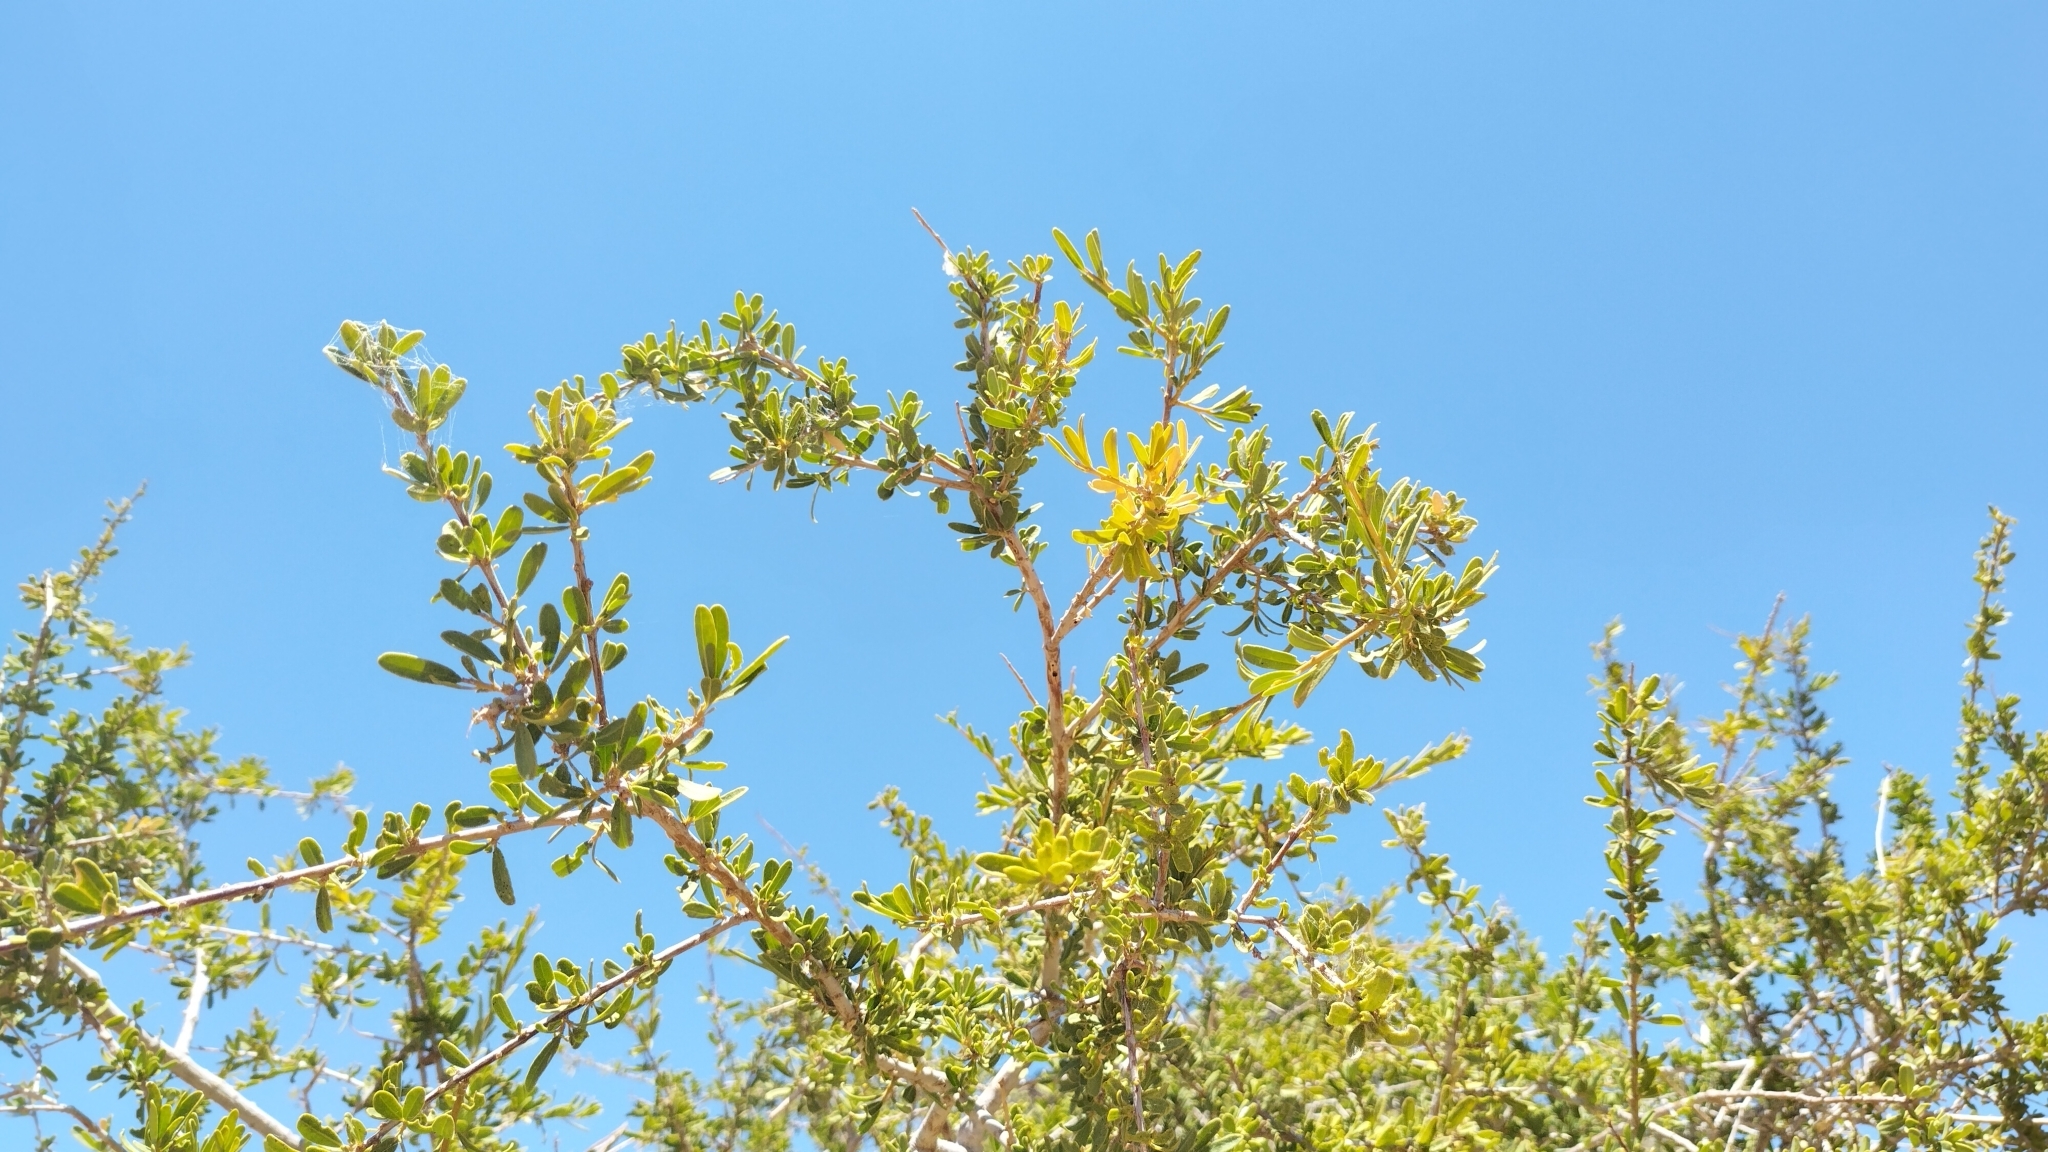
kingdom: Plantae
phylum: Tracheophyta
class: Magnoliopsida
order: Brassicales
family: Capparaceae
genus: Boscia
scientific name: Boscia albitrunca
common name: Caper bush
